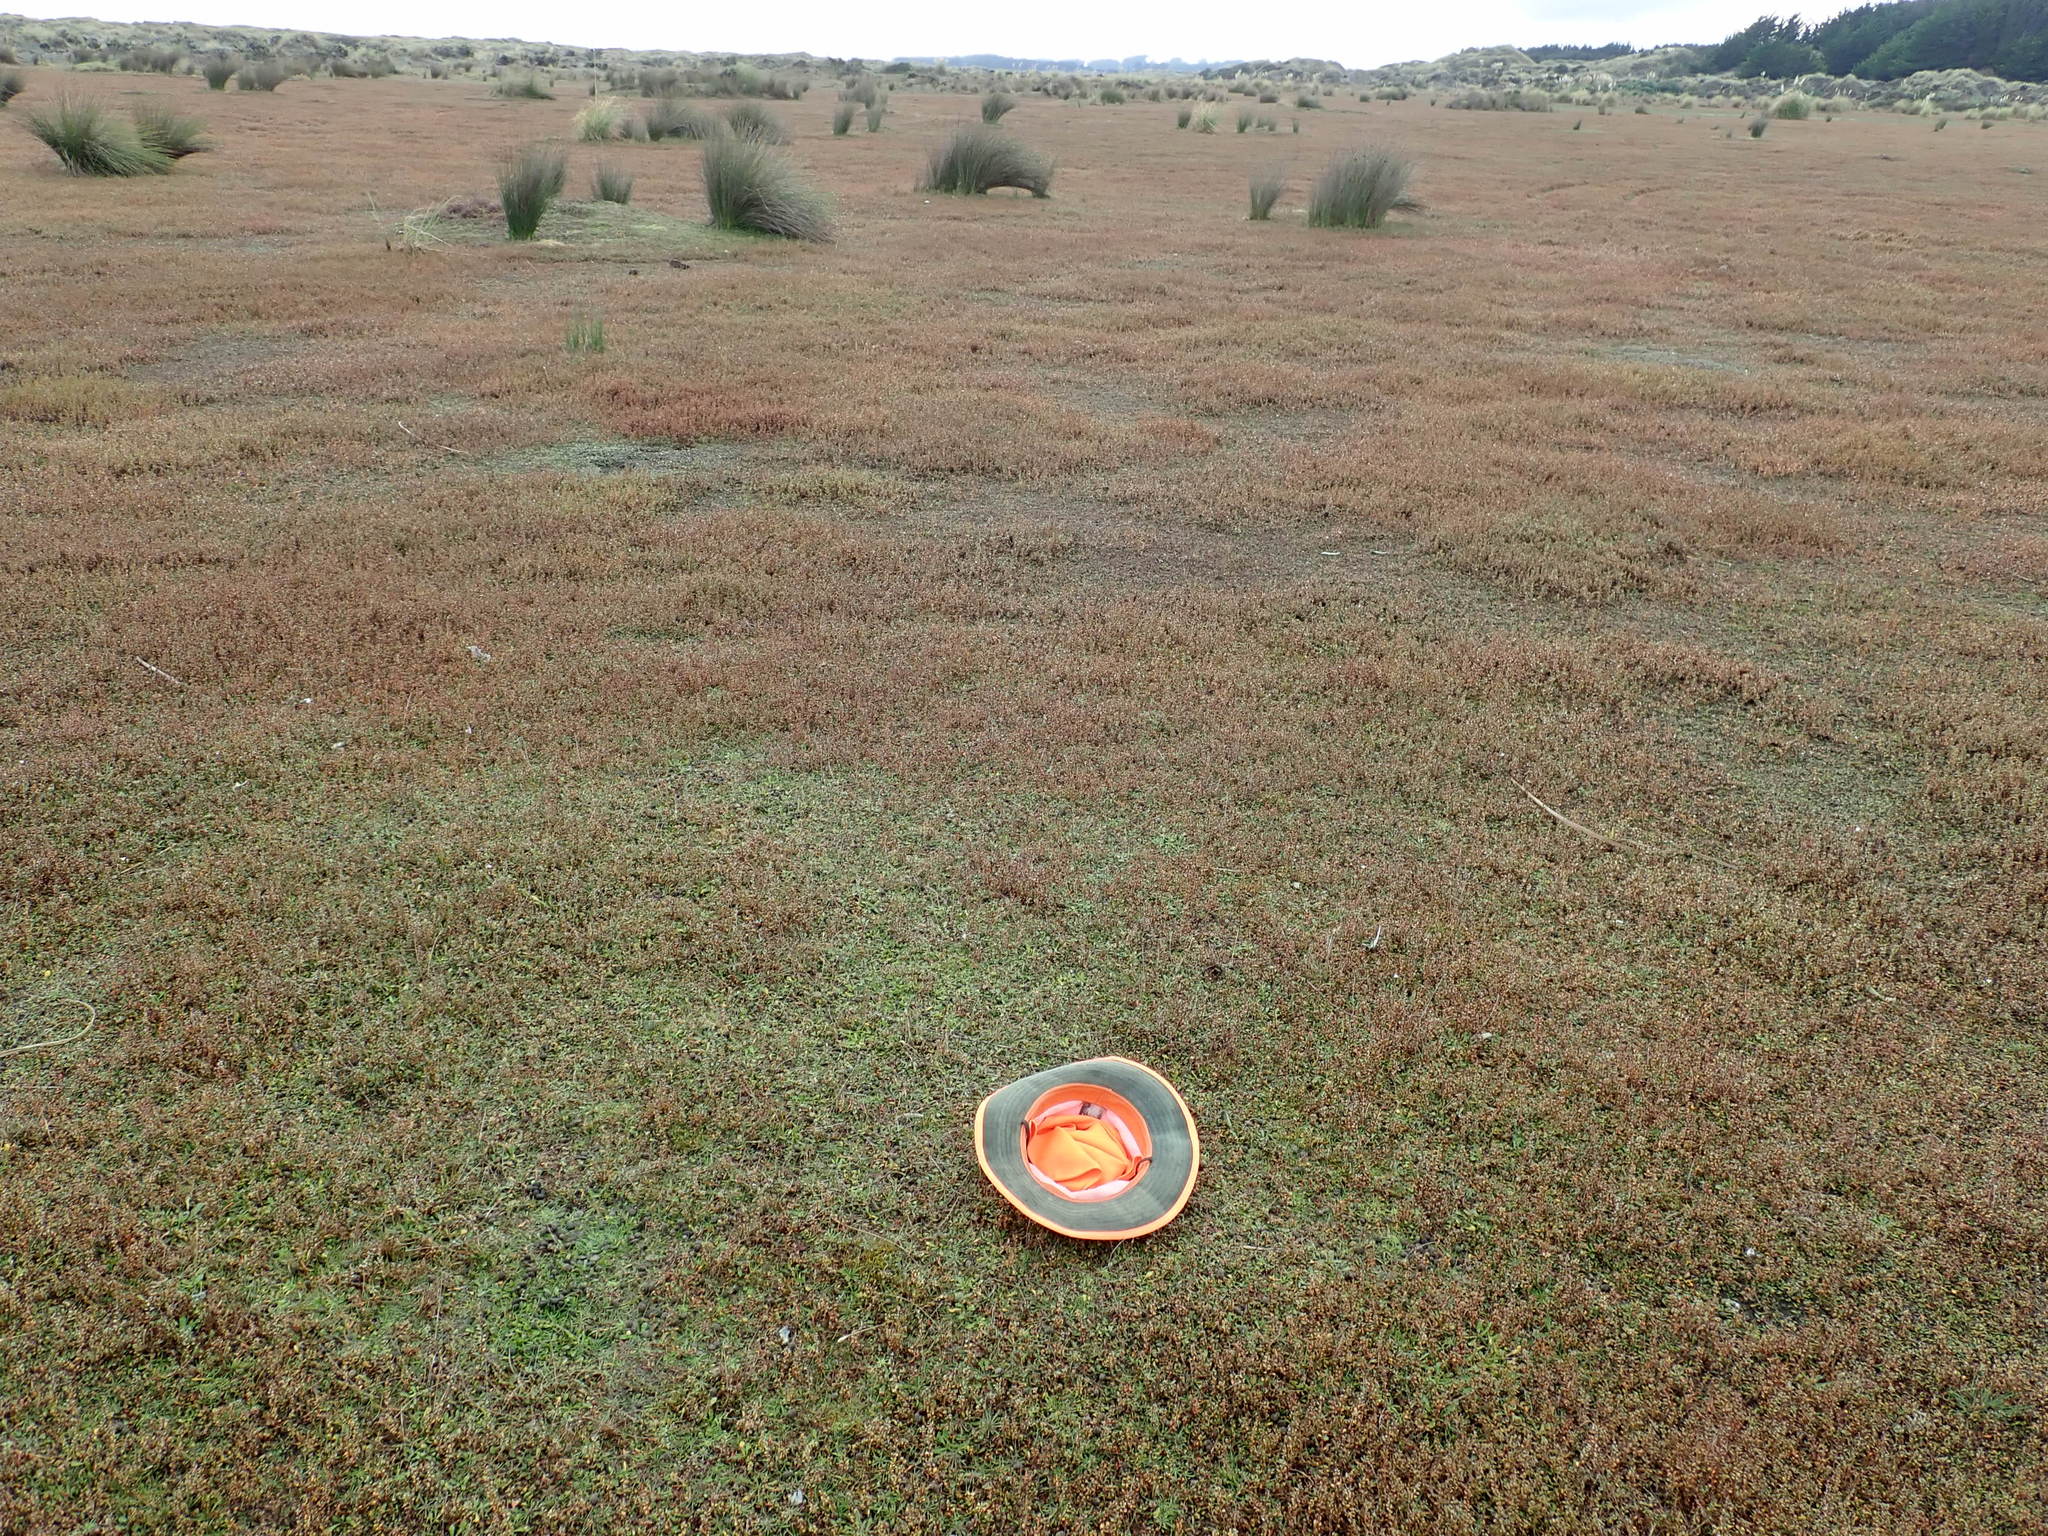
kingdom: Plantae
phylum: Tracheophyta
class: Magnoliopsida
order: Asterales
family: Goodeniaceae
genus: Goodenia
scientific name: Goodenia radicans
